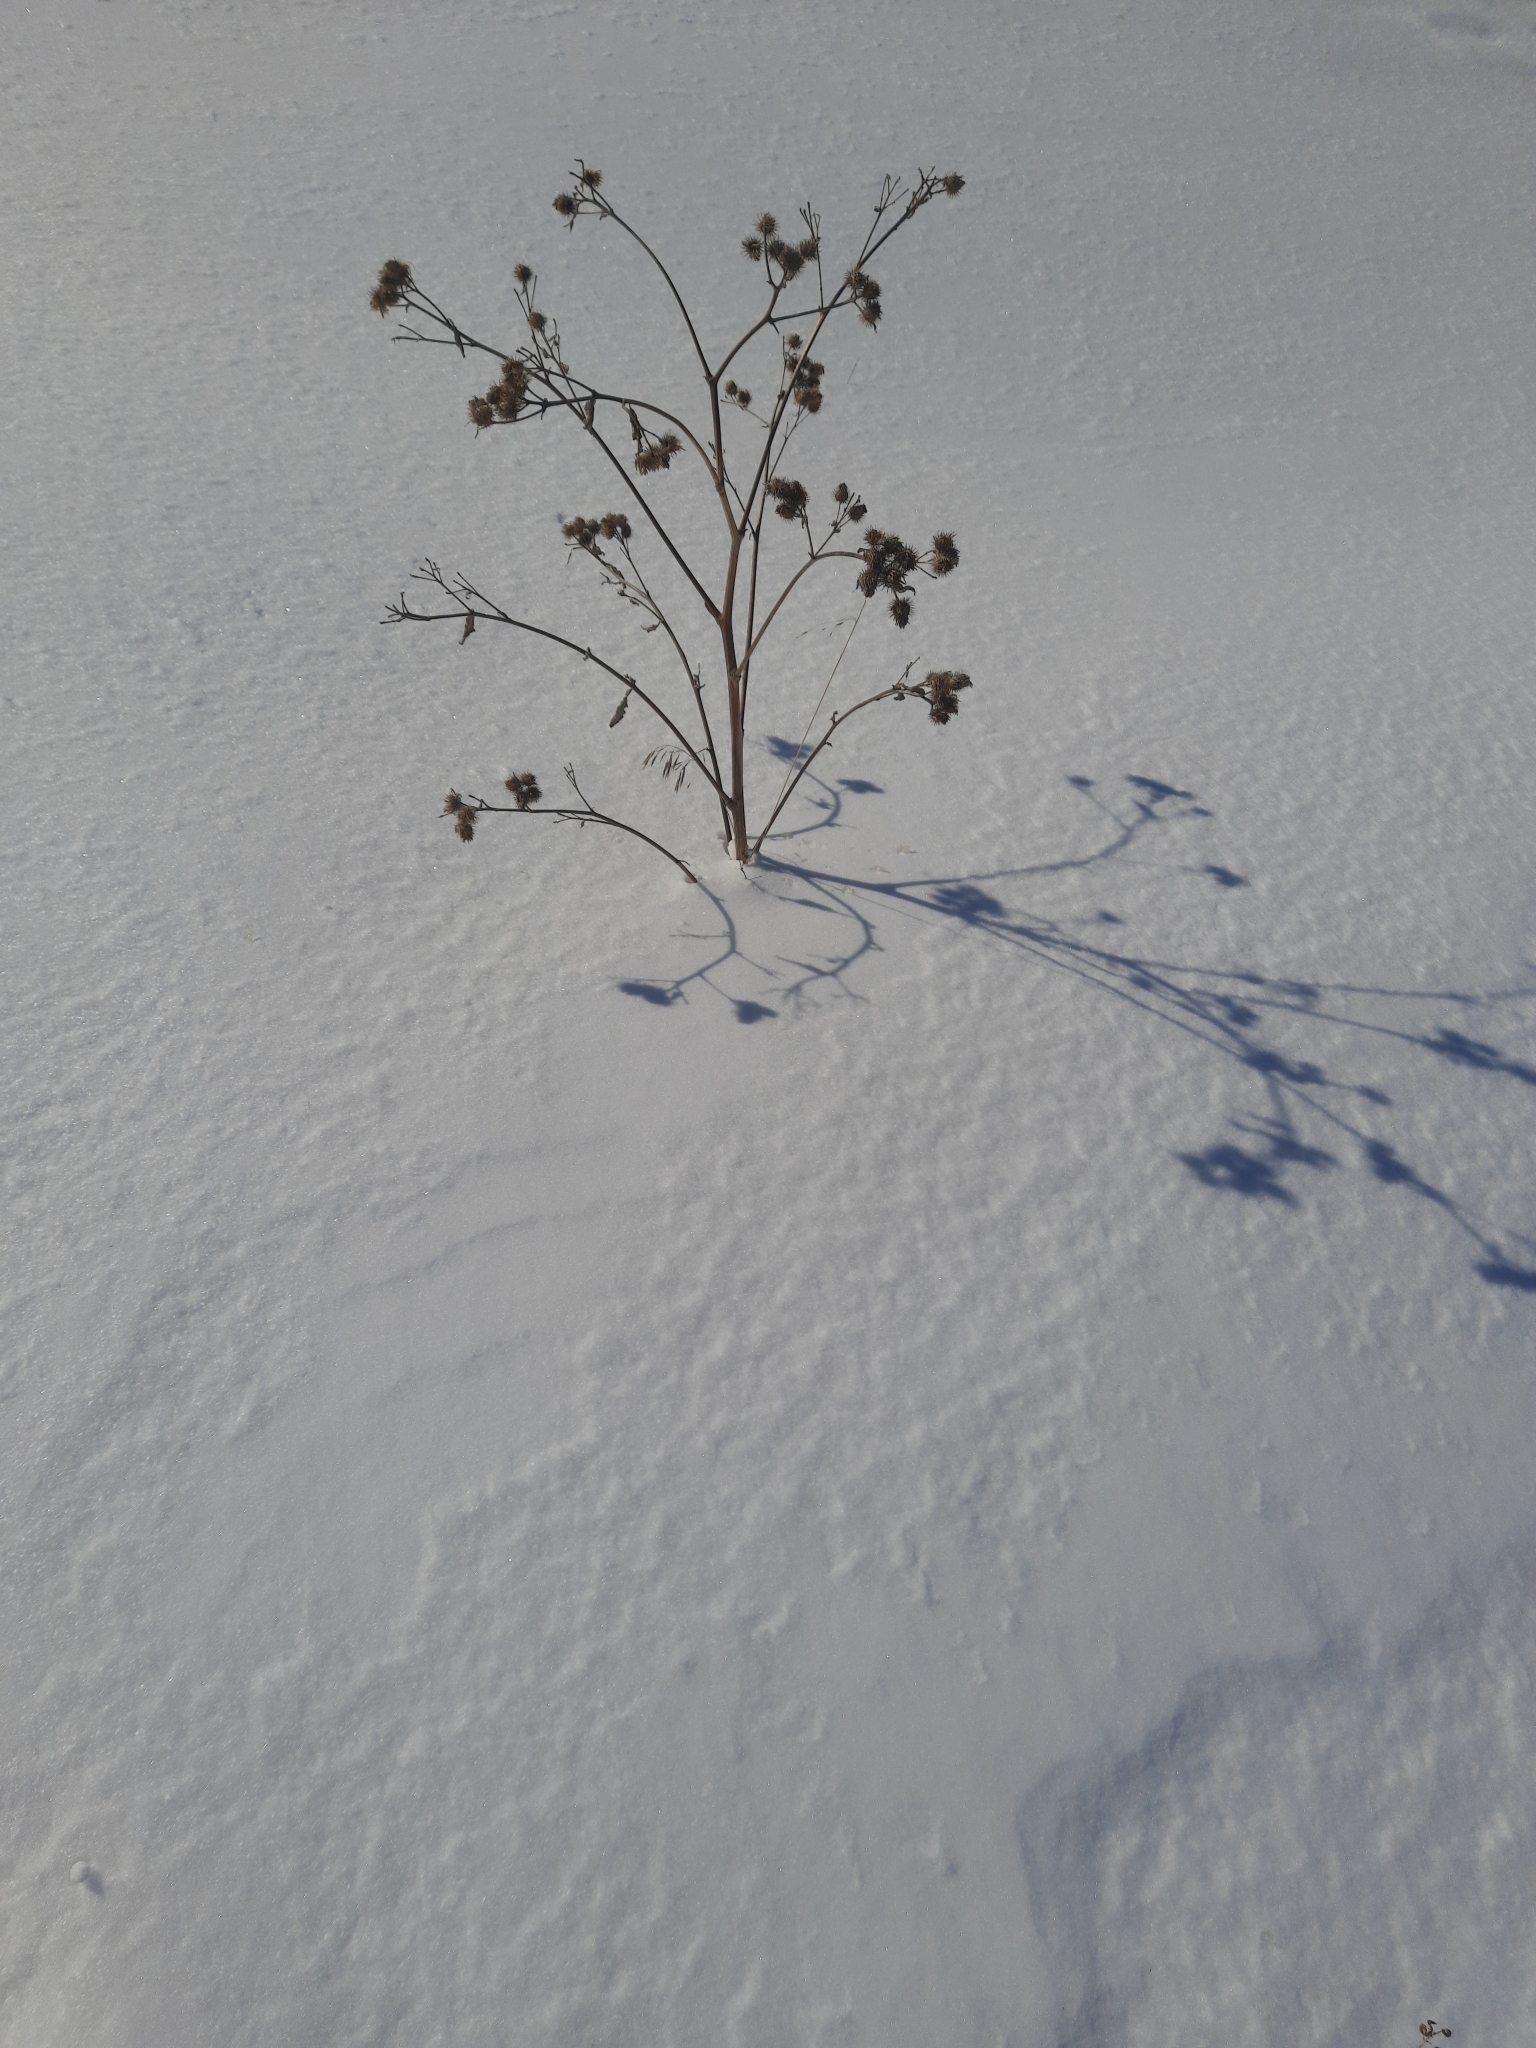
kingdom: Plantae
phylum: Tracheophyta
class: Magnoliopsida
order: Asterales
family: Asteraceae
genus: Arctium
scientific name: Arctium tomentosum
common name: Woolly burdock
